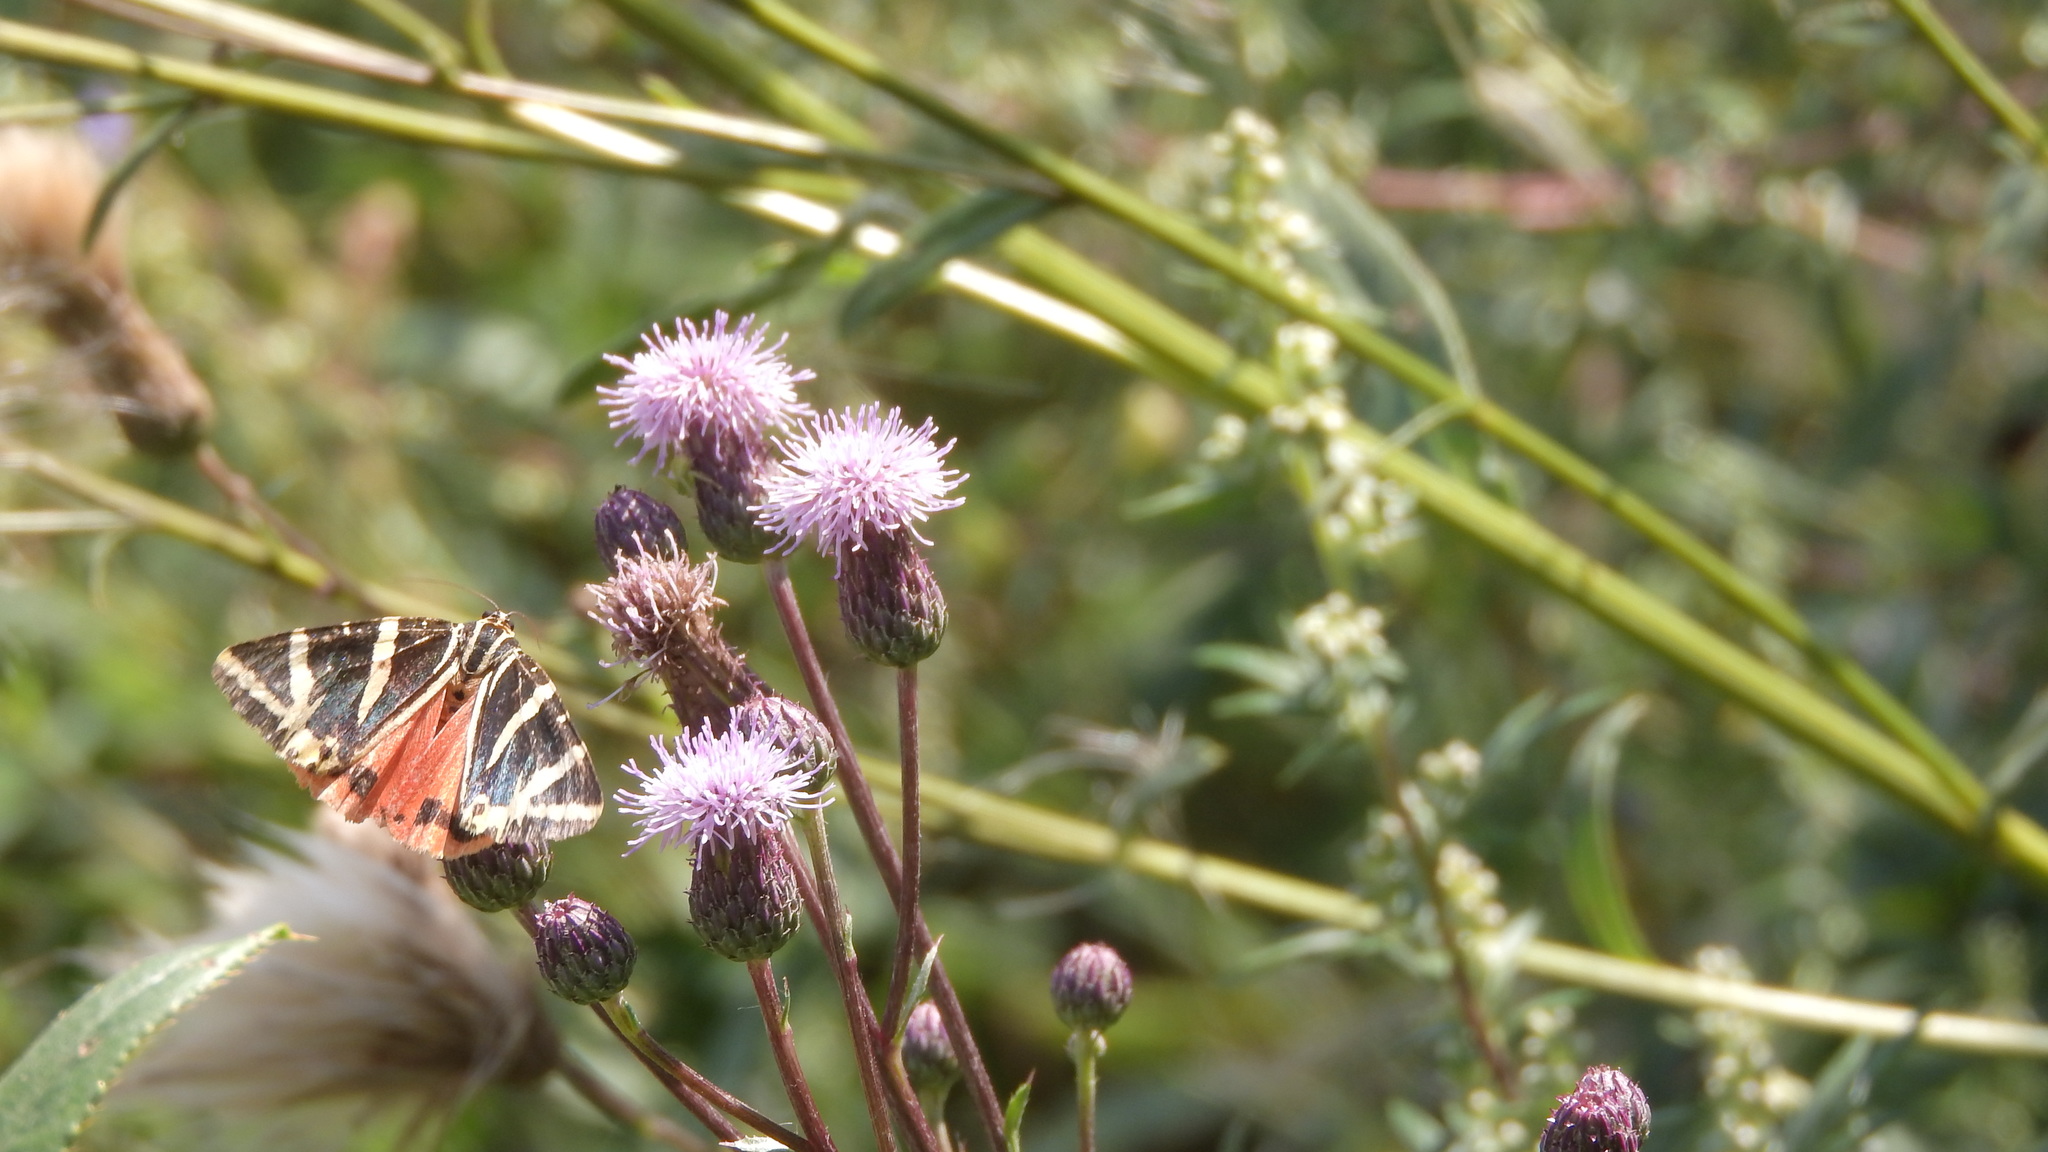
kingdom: Animalia
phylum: Arthropoda
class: Insecta
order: Lepidoptera
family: Erebidae
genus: Euplagia
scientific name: Euplagia quadripunctaria
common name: Jersey tiger
